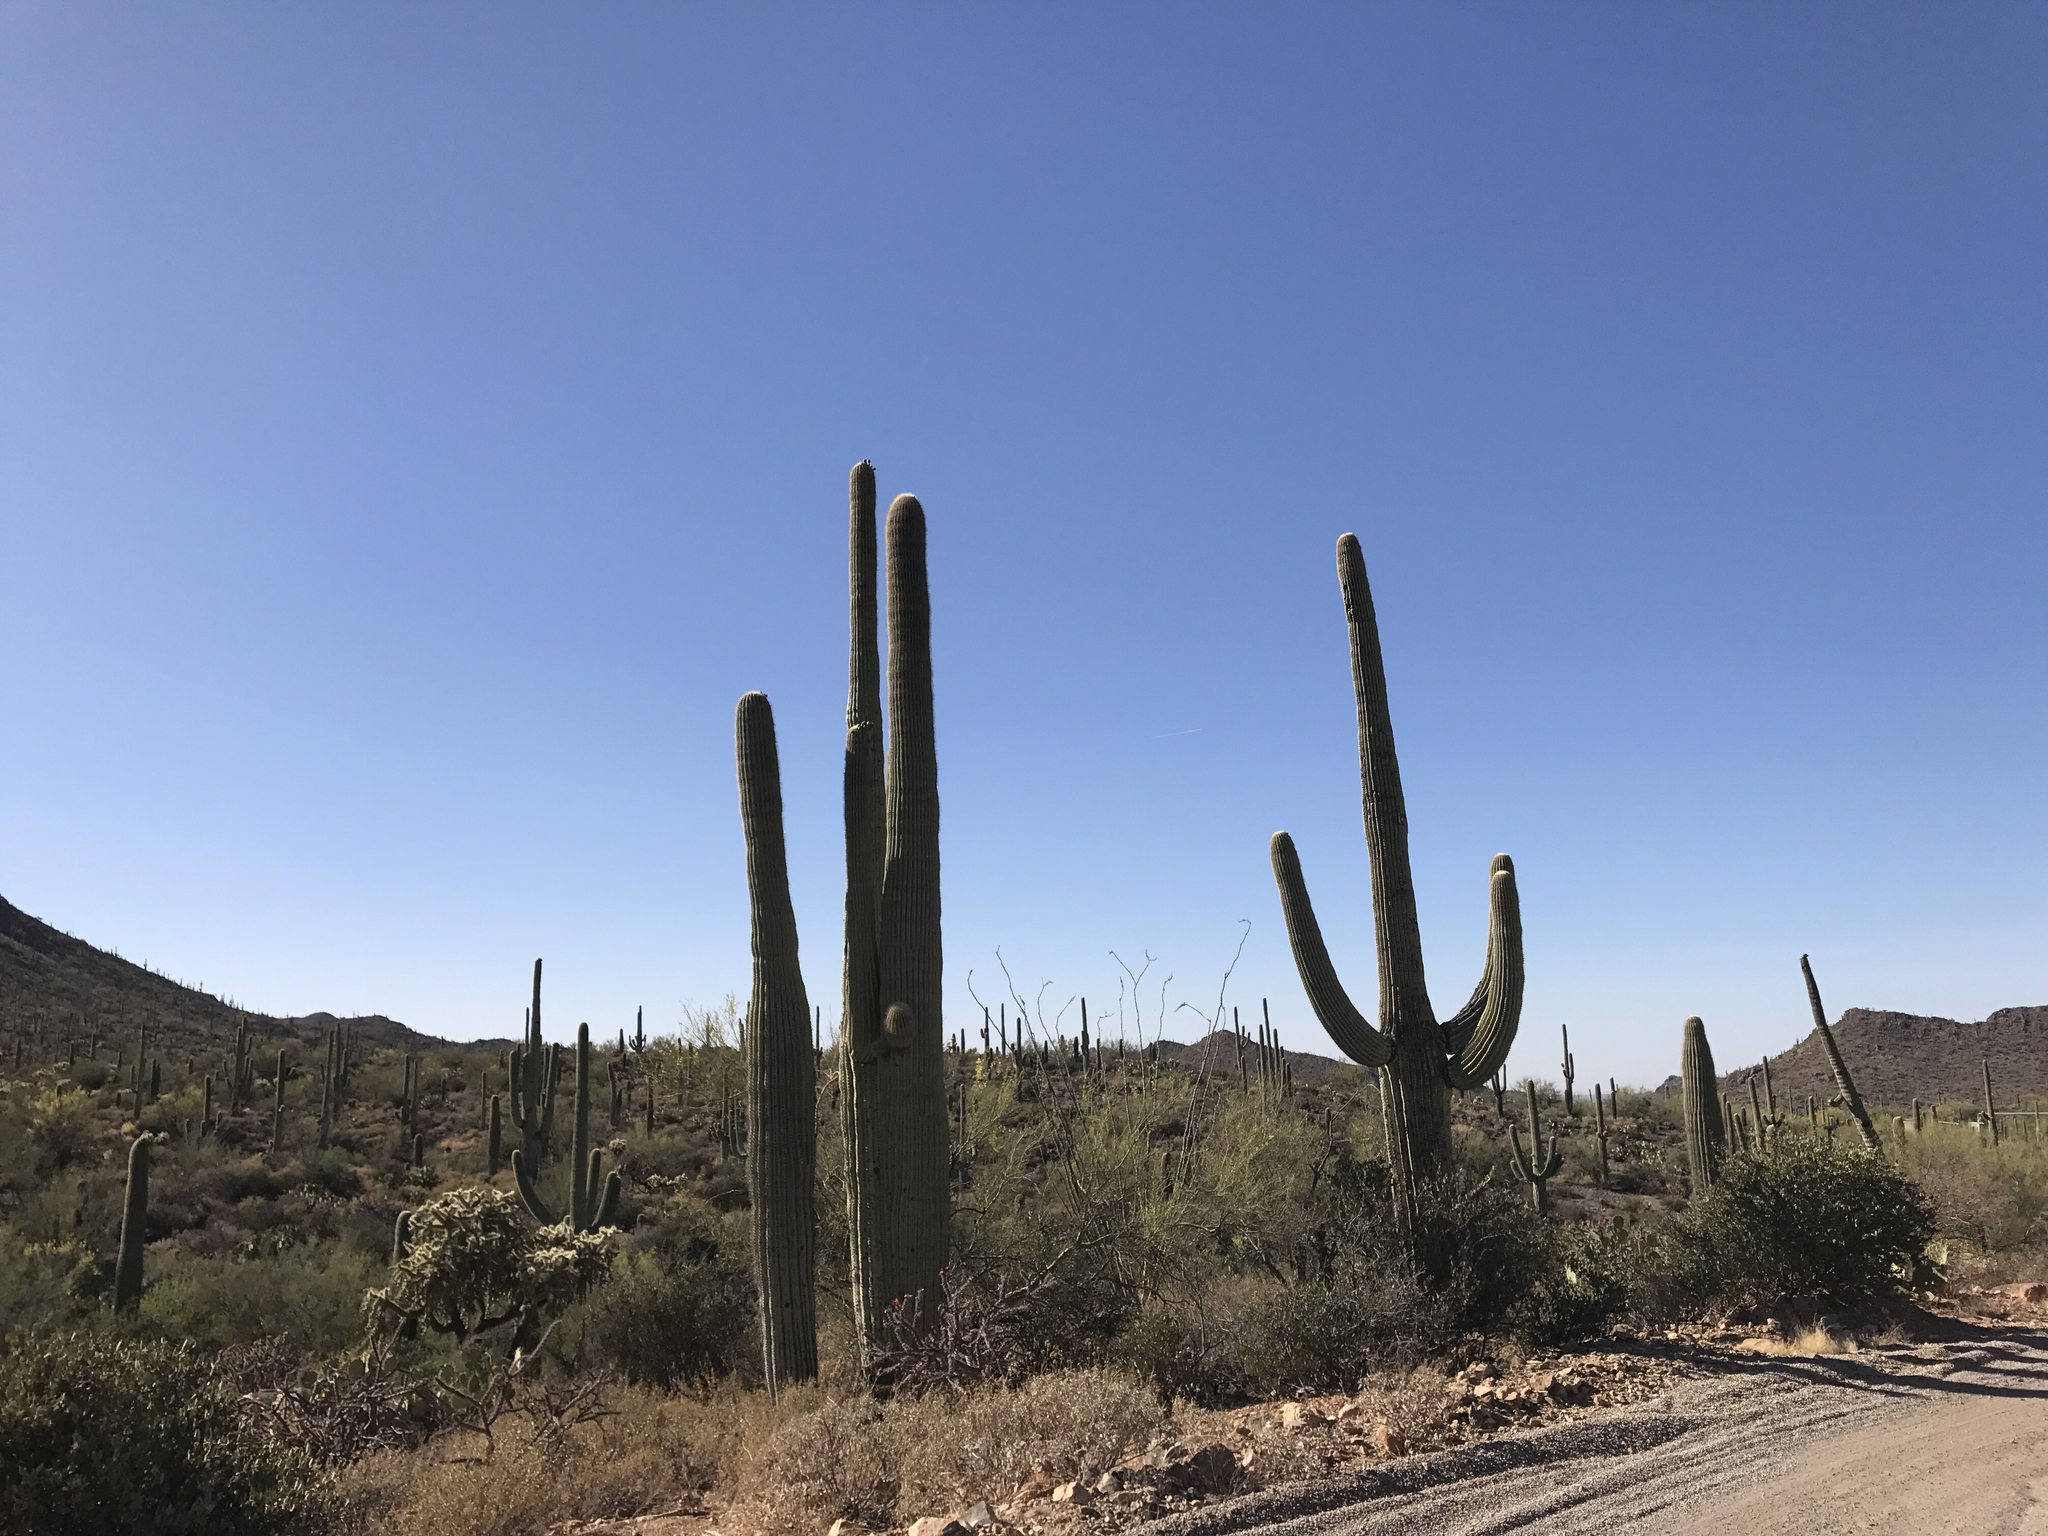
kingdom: Plantae
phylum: Tracheophyta
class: Magnoliopsida
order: Caryophyllales
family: Cactaceae
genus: Carnegiea
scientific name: Carnegiea gigantea
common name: Saguaro
